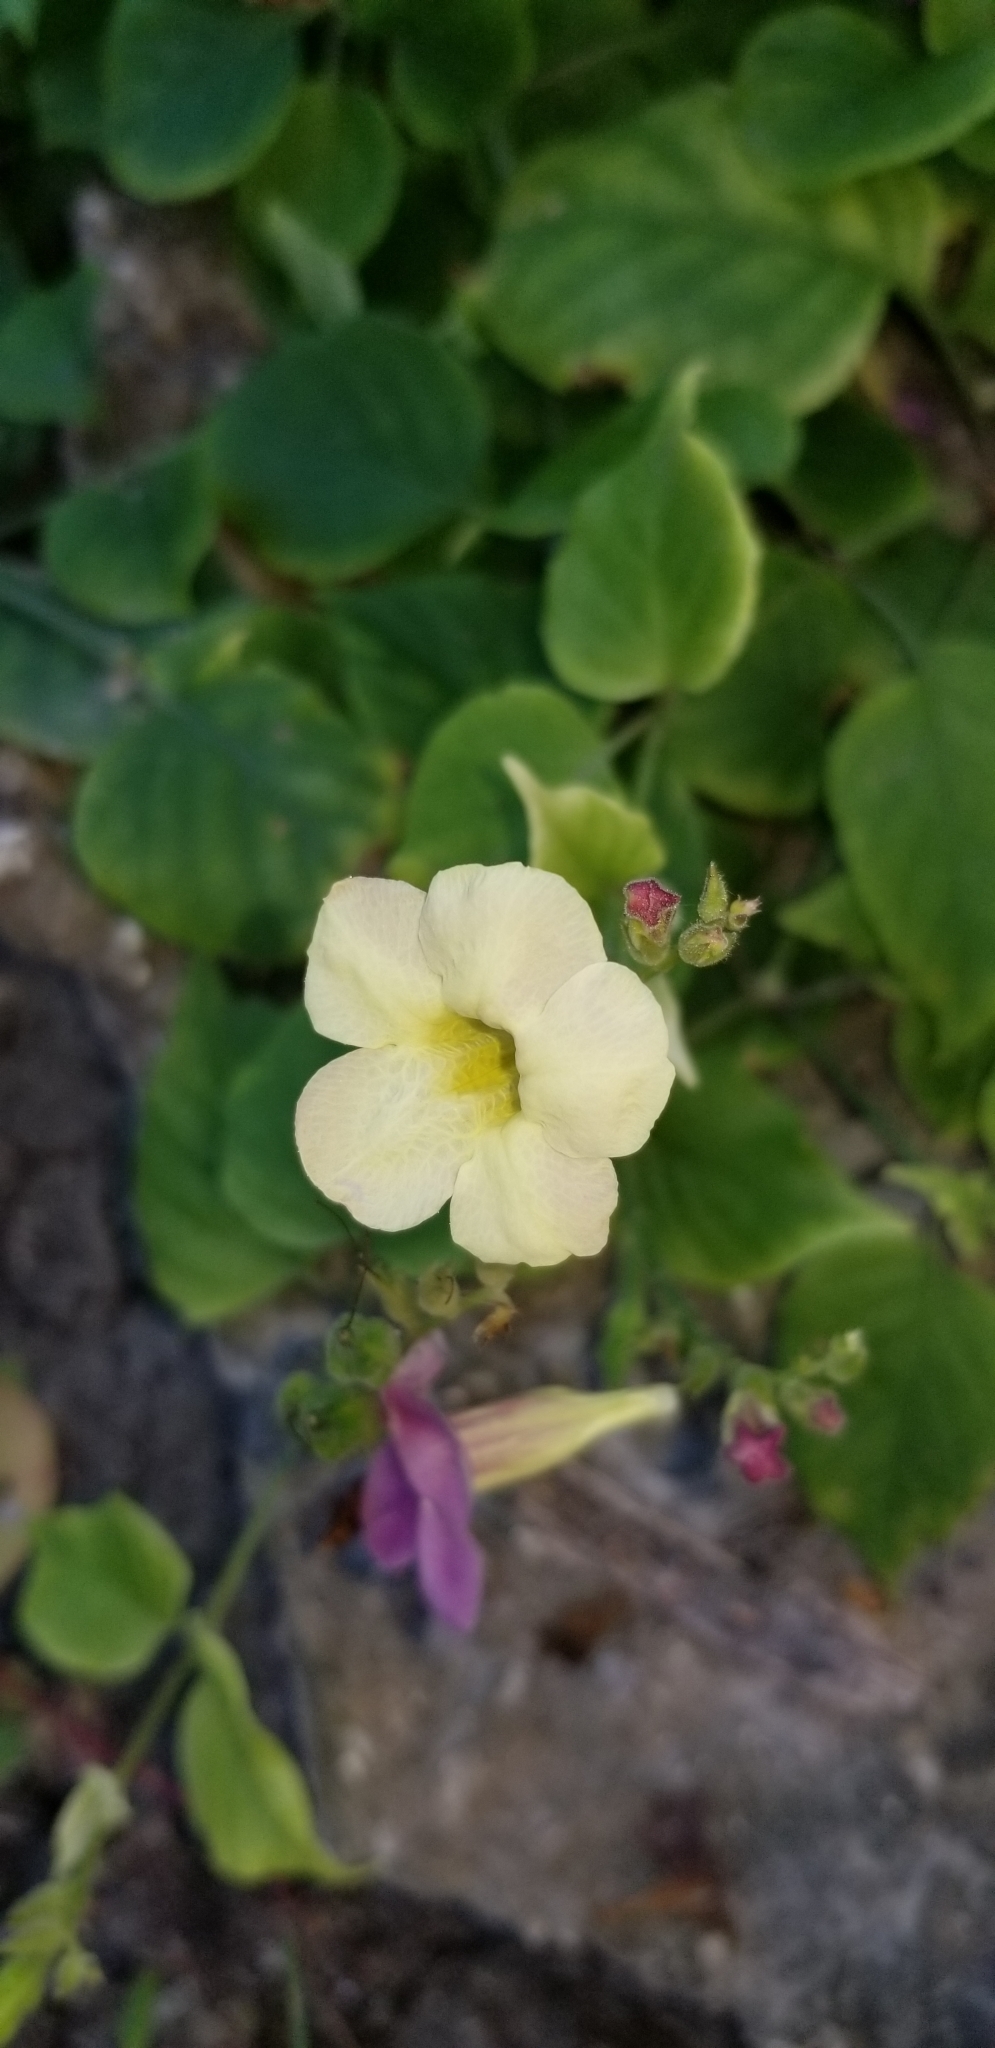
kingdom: Plantae
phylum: Tracheophyta
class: Magnoliopsida
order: Lamiales
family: Acanthaceae
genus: Asystasia
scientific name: Asystasia gangetica
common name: Chinese violet
